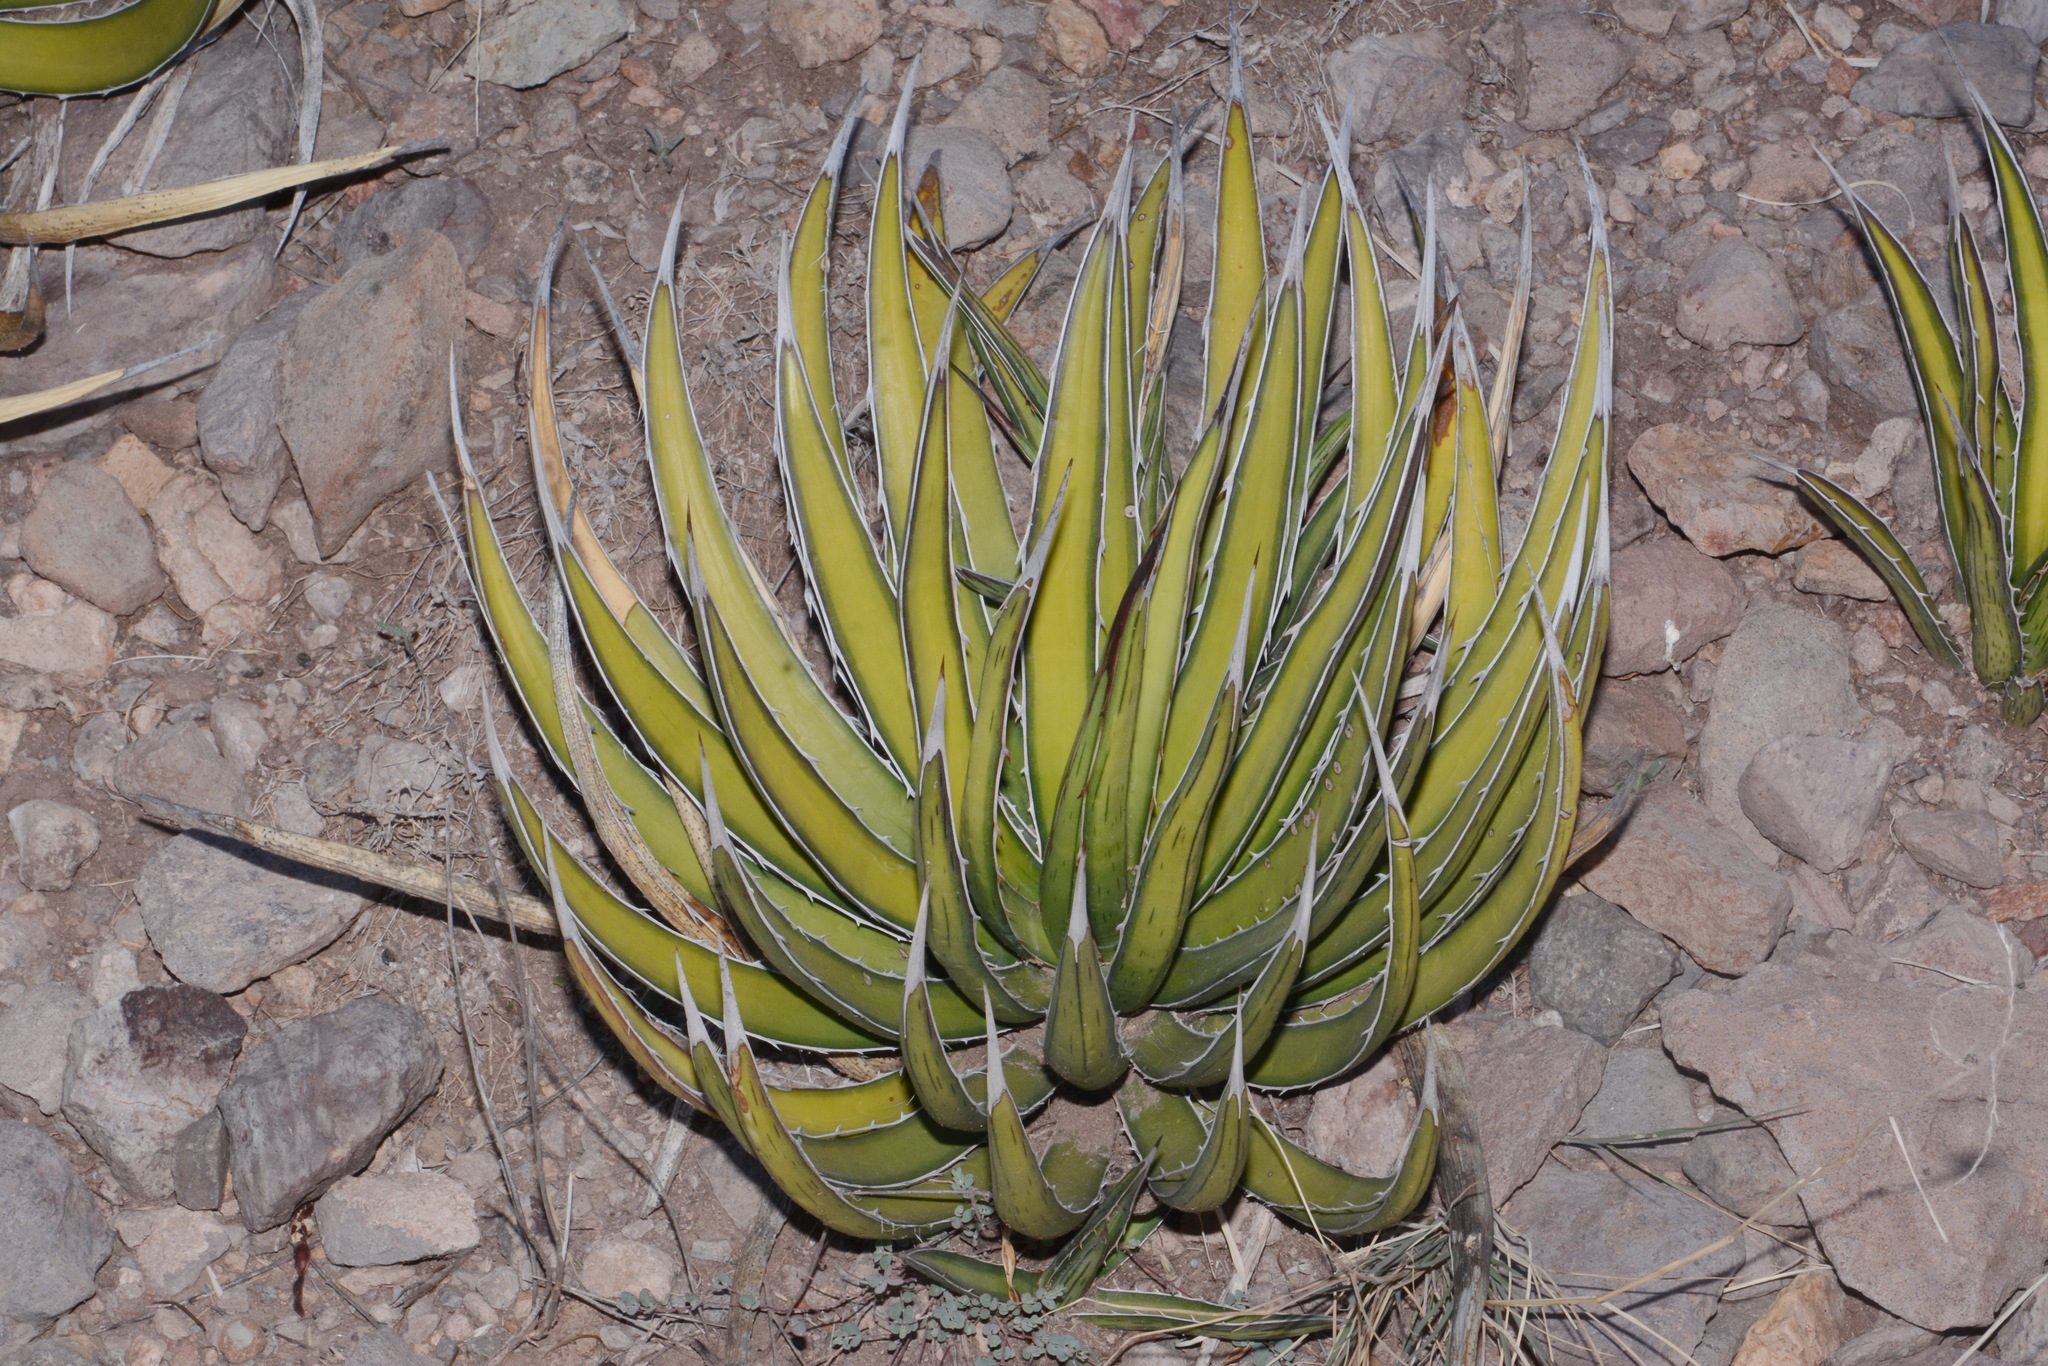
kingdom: Plantae
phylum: Tracheophyta
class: Liliopsida
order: Asparagales
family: Asparagaceae
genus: Agave
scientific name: Agave lechuguilla
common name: Lecheguilla agave
